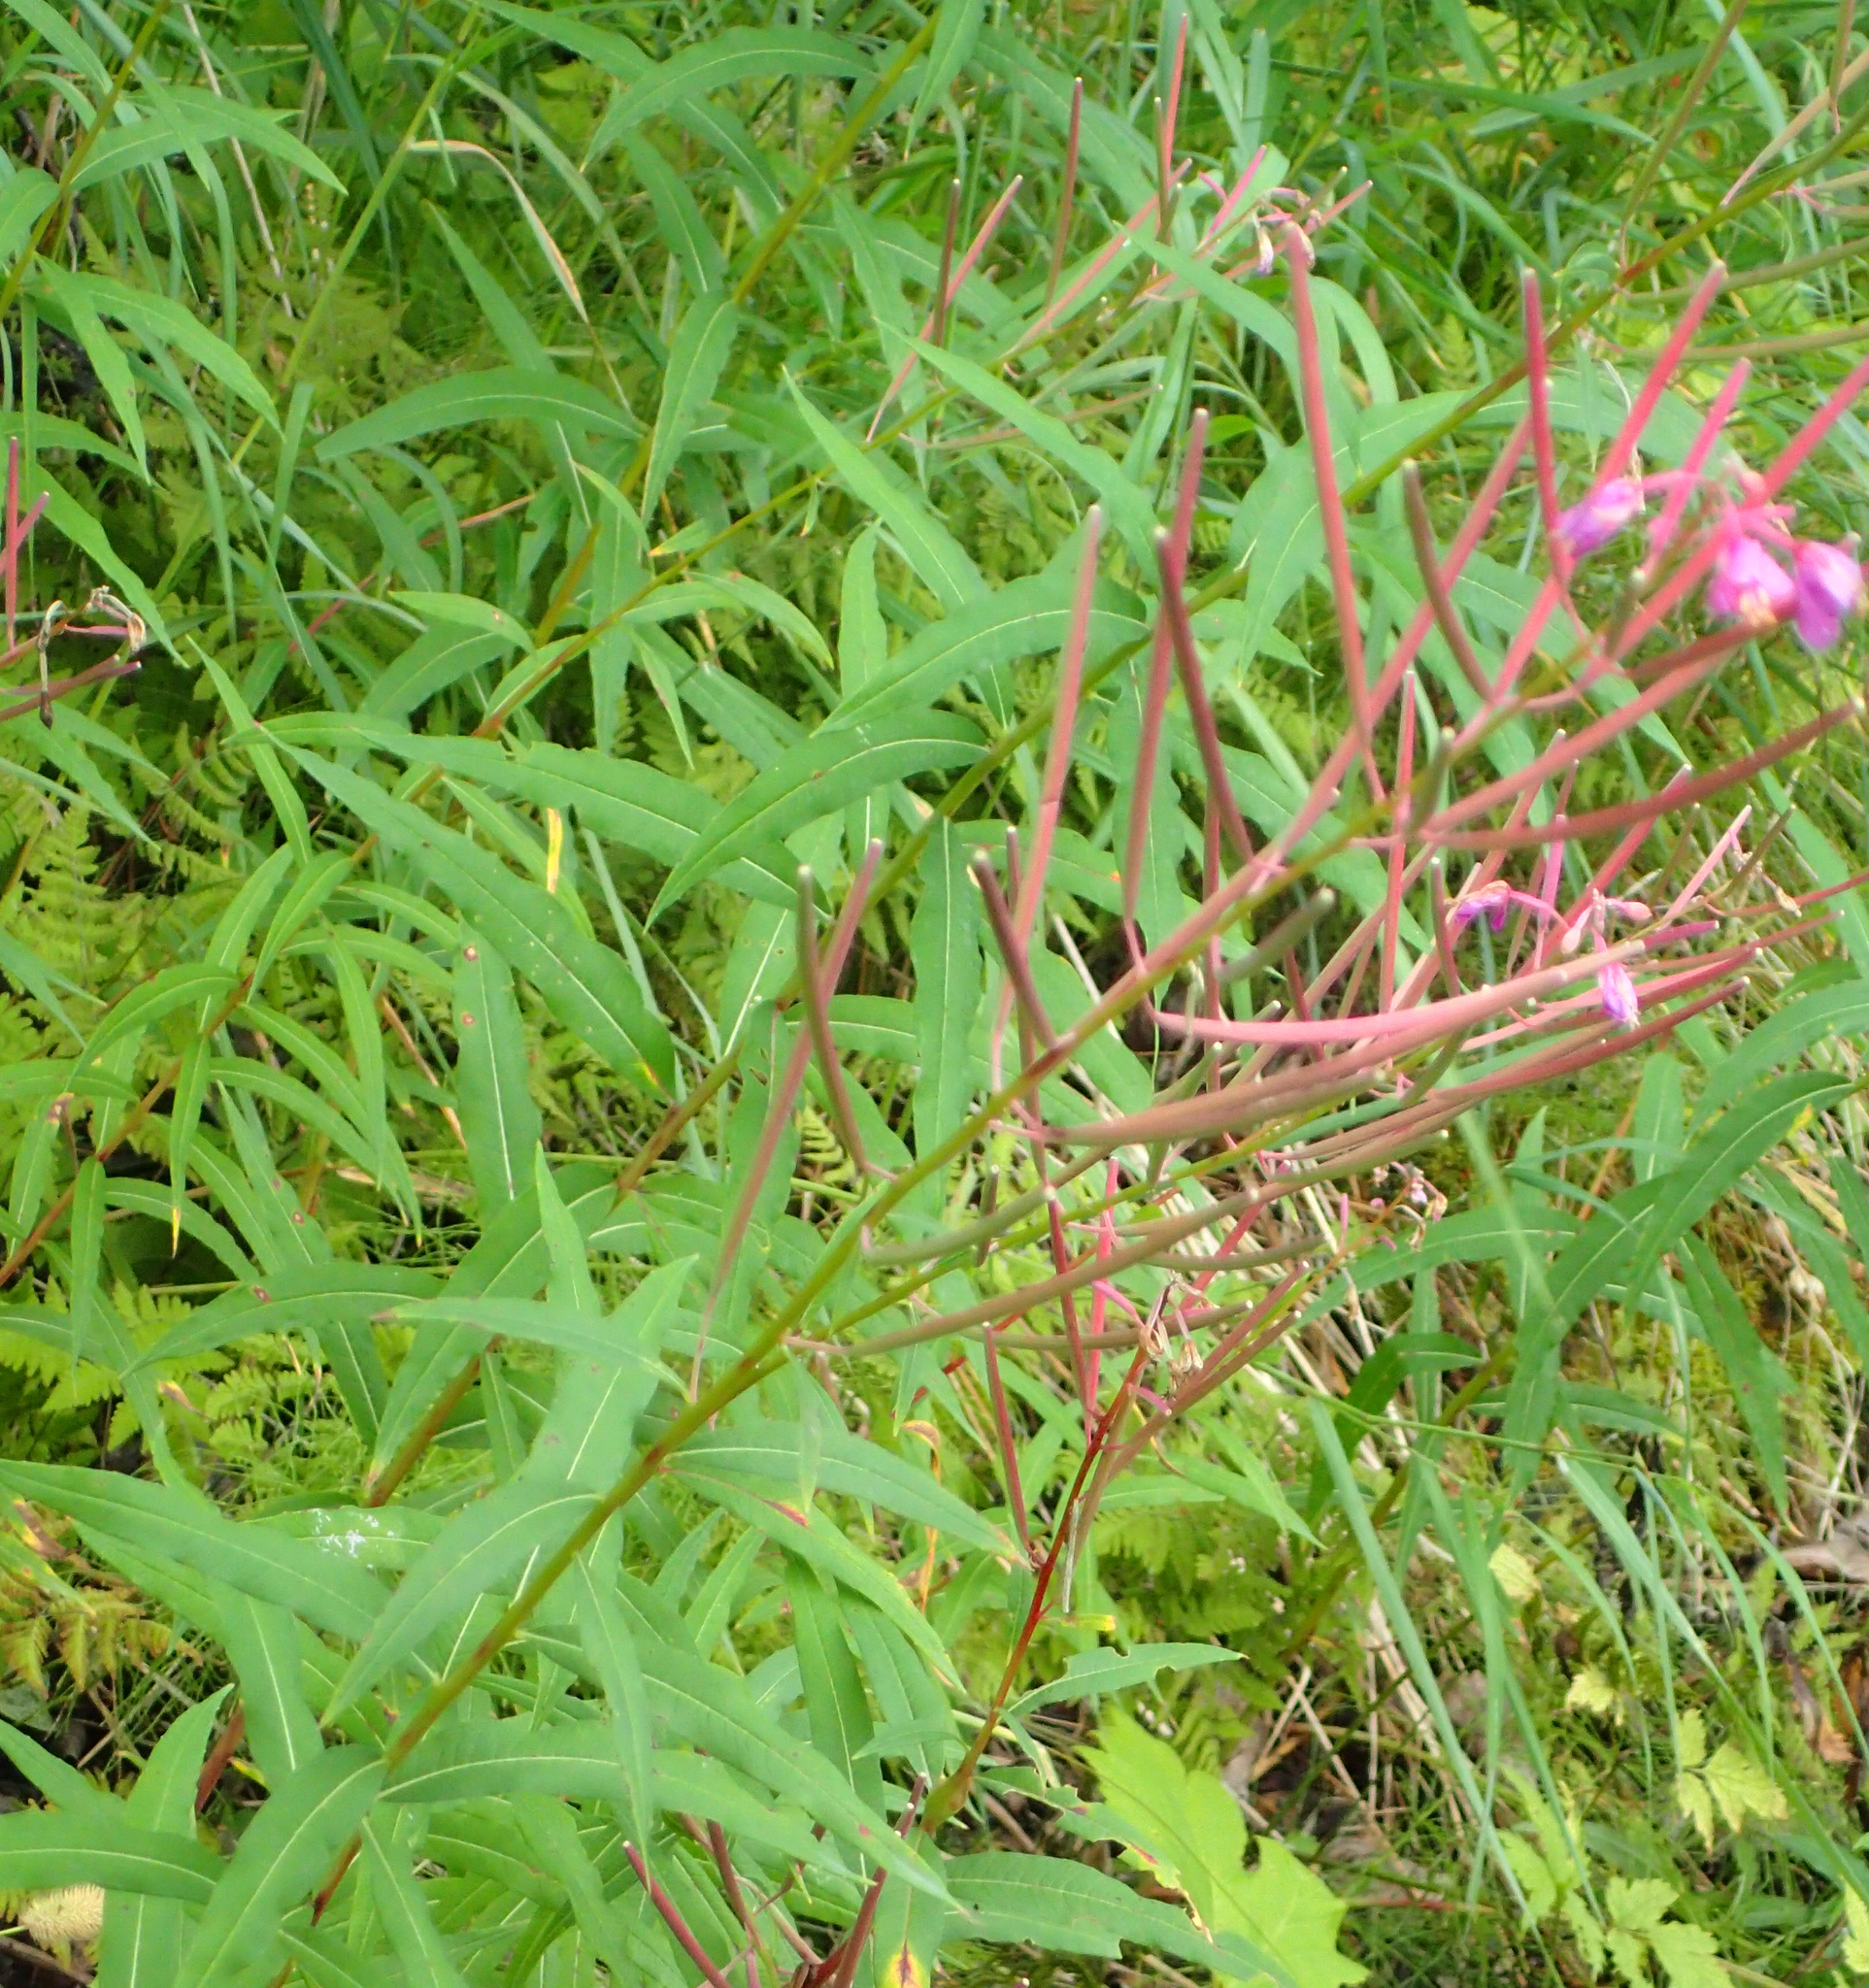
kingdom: Plantae
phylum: Tracheophyta
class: Magnoliopsida
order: Myrtales
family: Onagraceae
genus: Chamaenerion
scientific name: Chamaenerion angustifolium
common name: Fireweed
